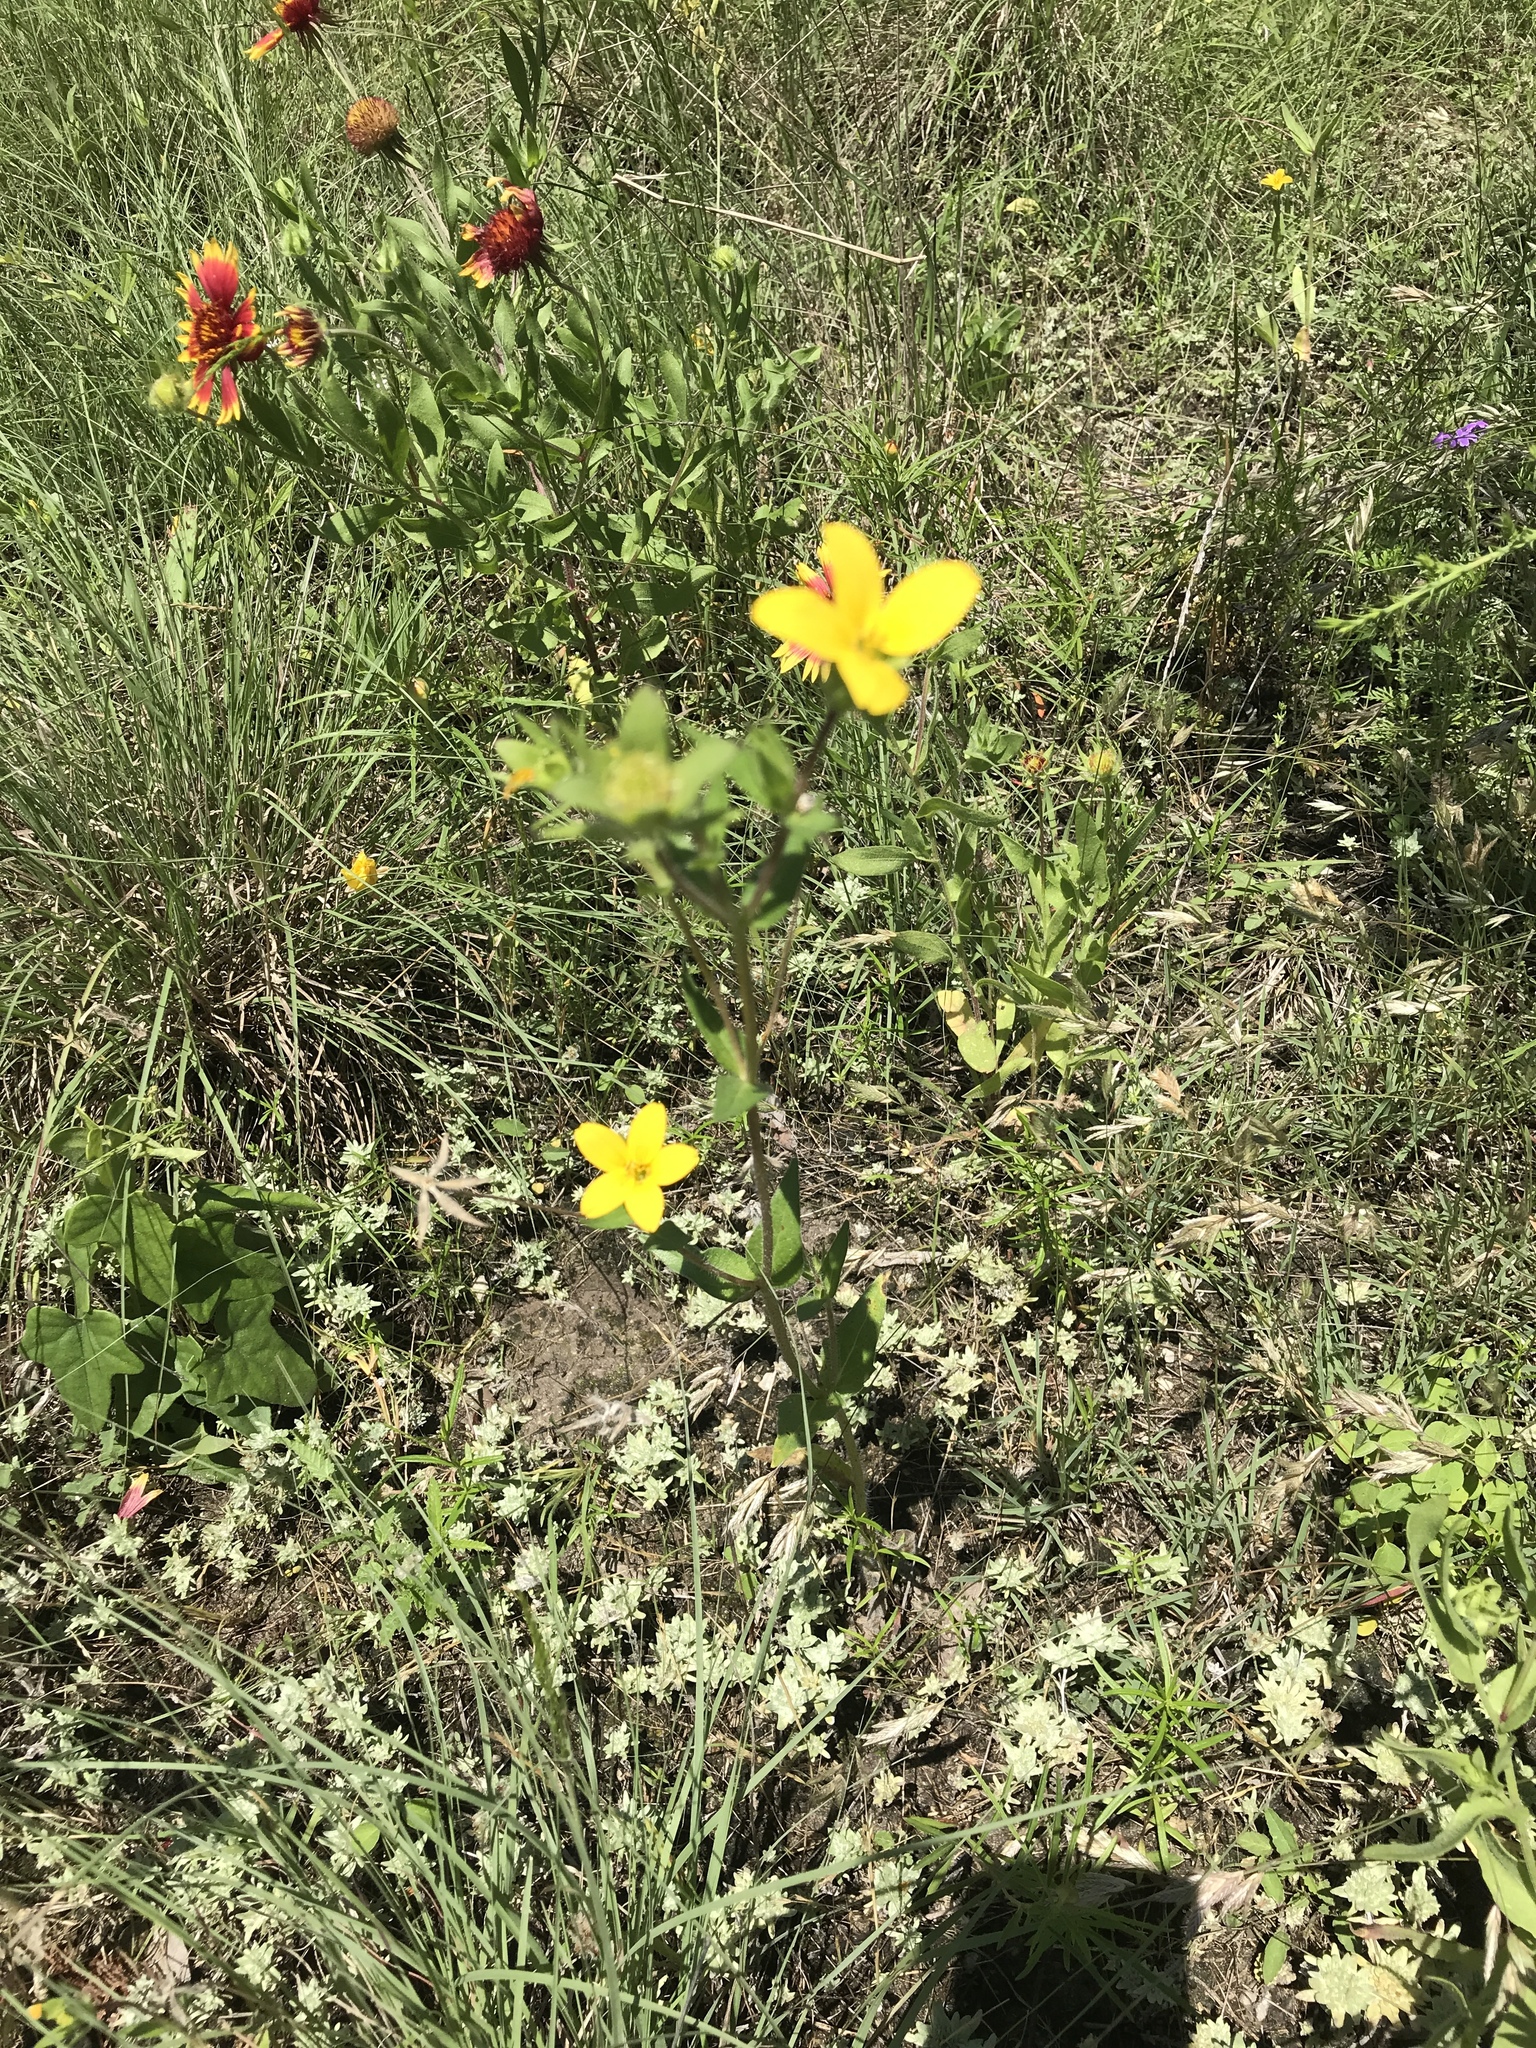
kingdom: Plantae
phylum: Tracheophyta
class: Magnoliopsida
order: Asterales
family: Asteraceae
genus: Lindheimera
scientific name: Lindheimera texana
